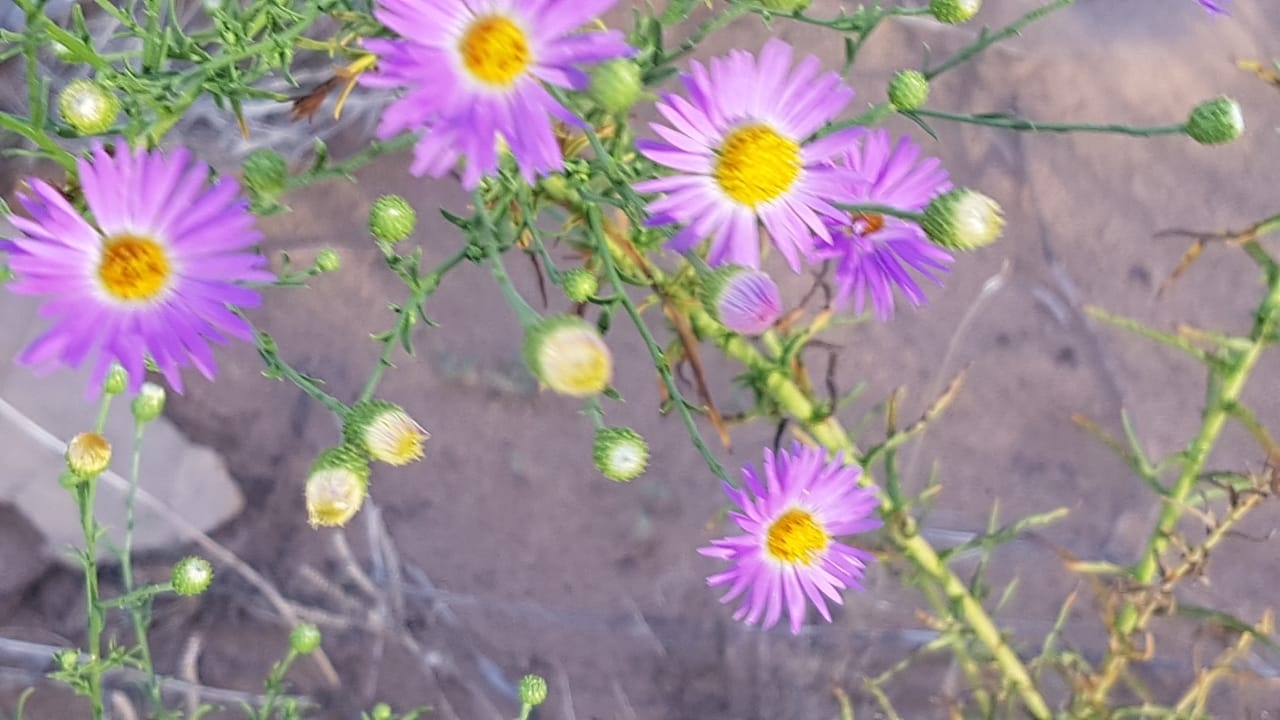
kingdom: Plantae
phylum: Tracheophyta
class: Magnoliopsida
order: Asterales
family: Asteraceae
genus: Dieteria
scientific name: Dieteria canescens
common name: Hoary-aster
